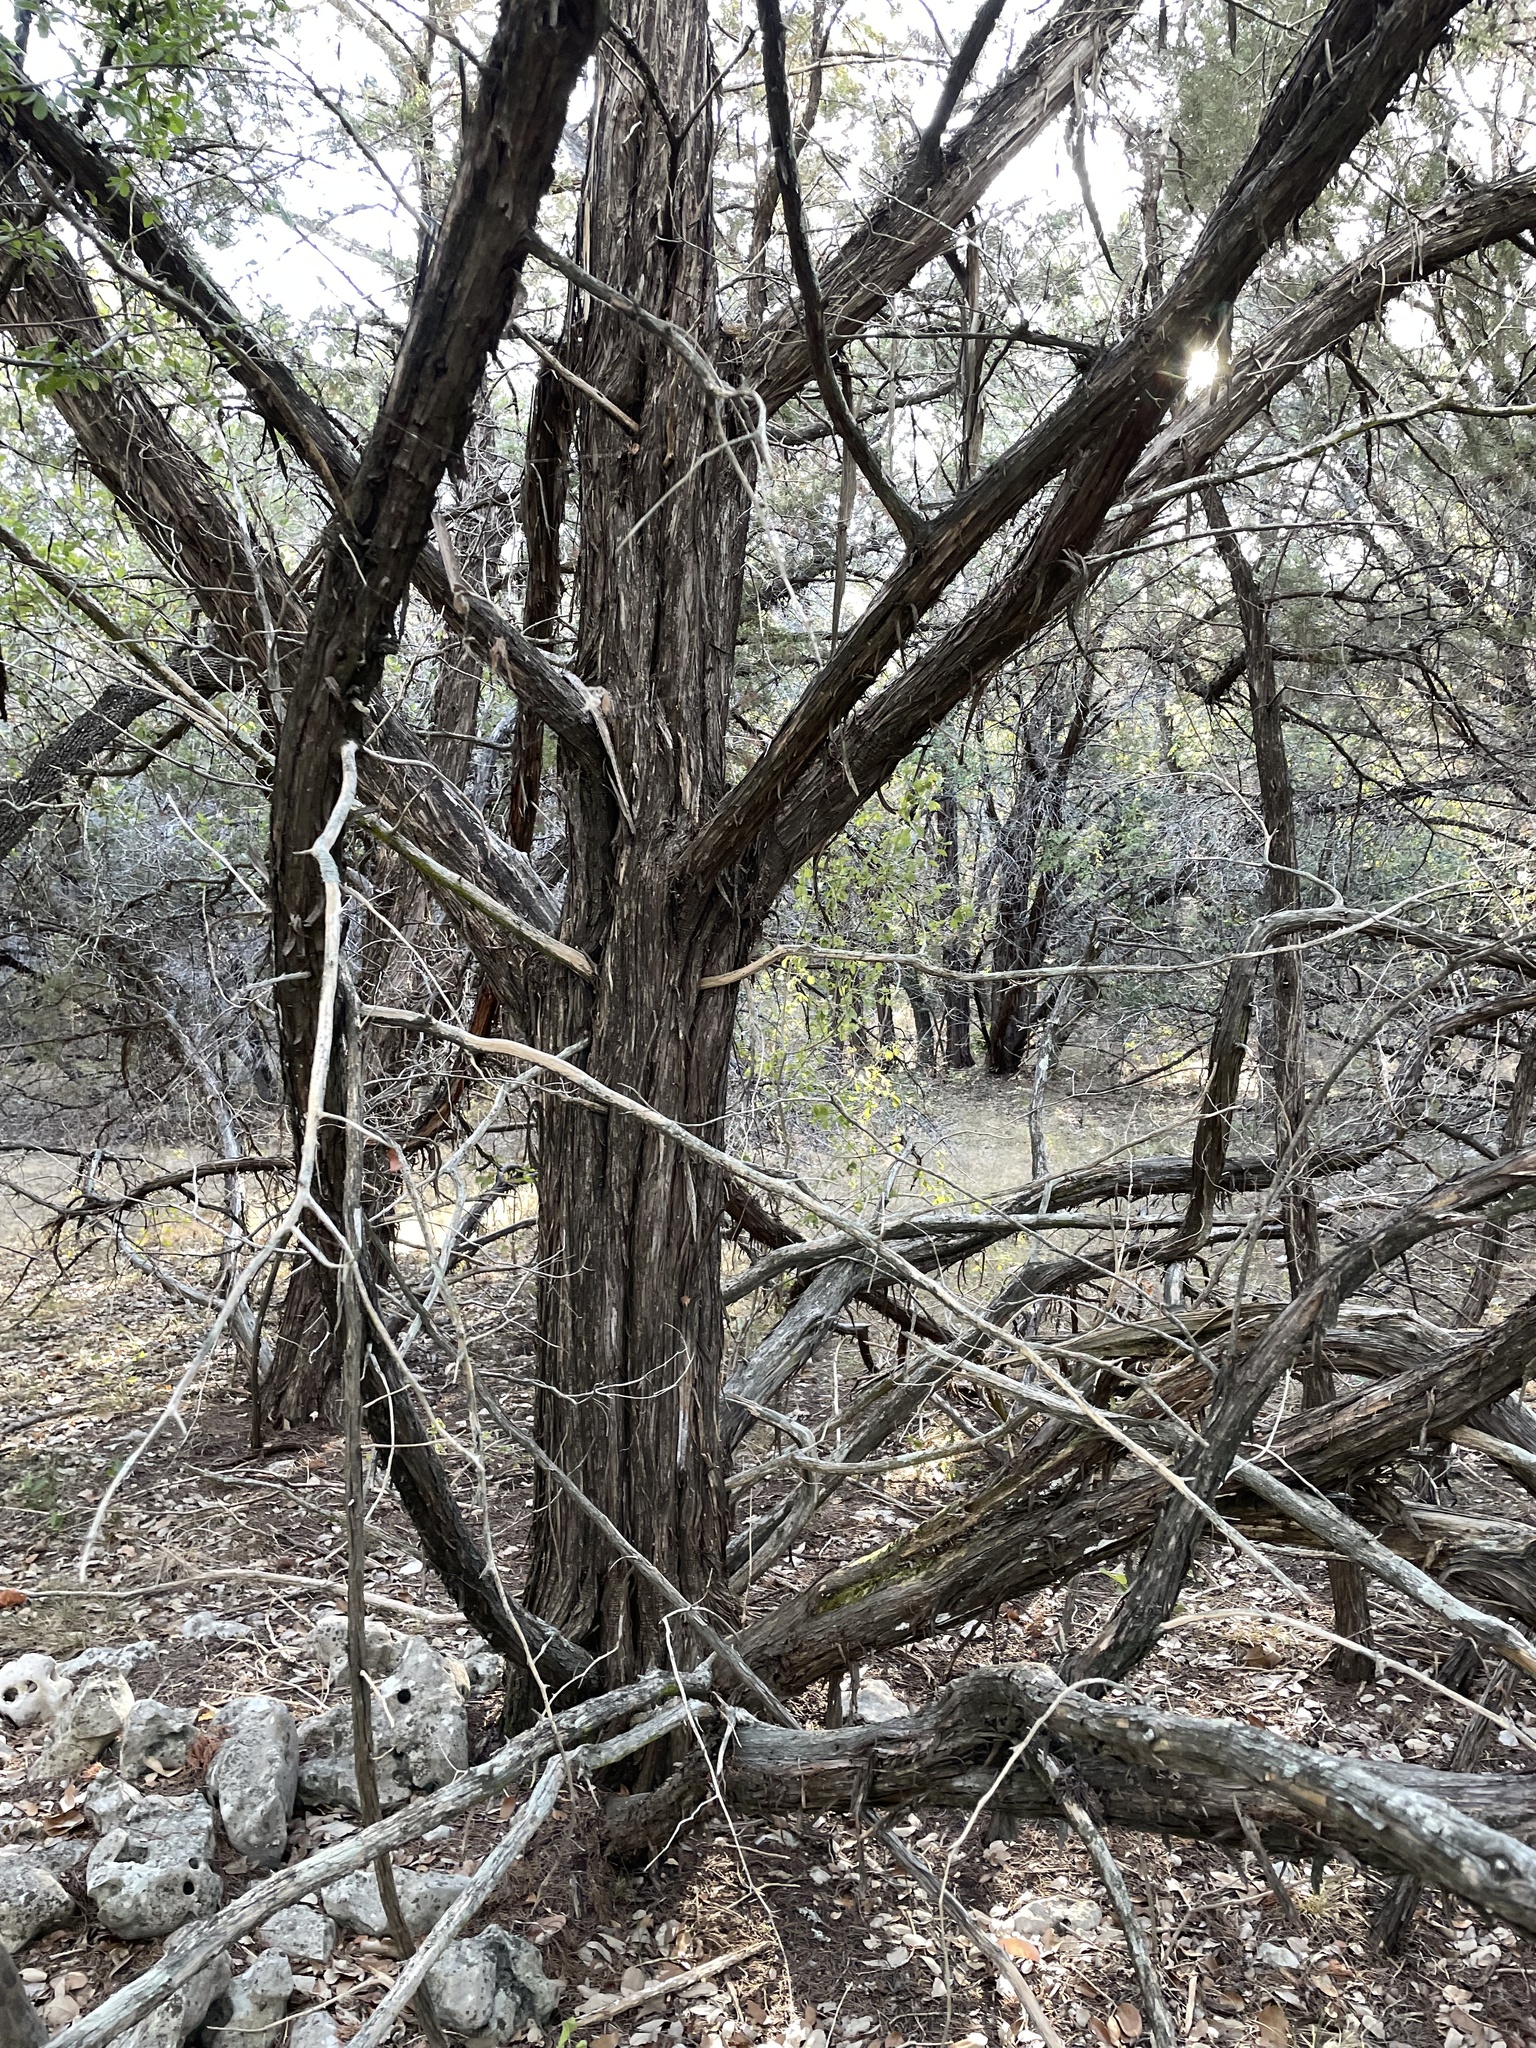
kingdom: Plantae
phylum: Tracheophyta
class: Pinopsida
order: Pinales
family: Cupressaceae
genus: Juniperus
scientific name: Juniperus ashei
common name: Mexican juniper
